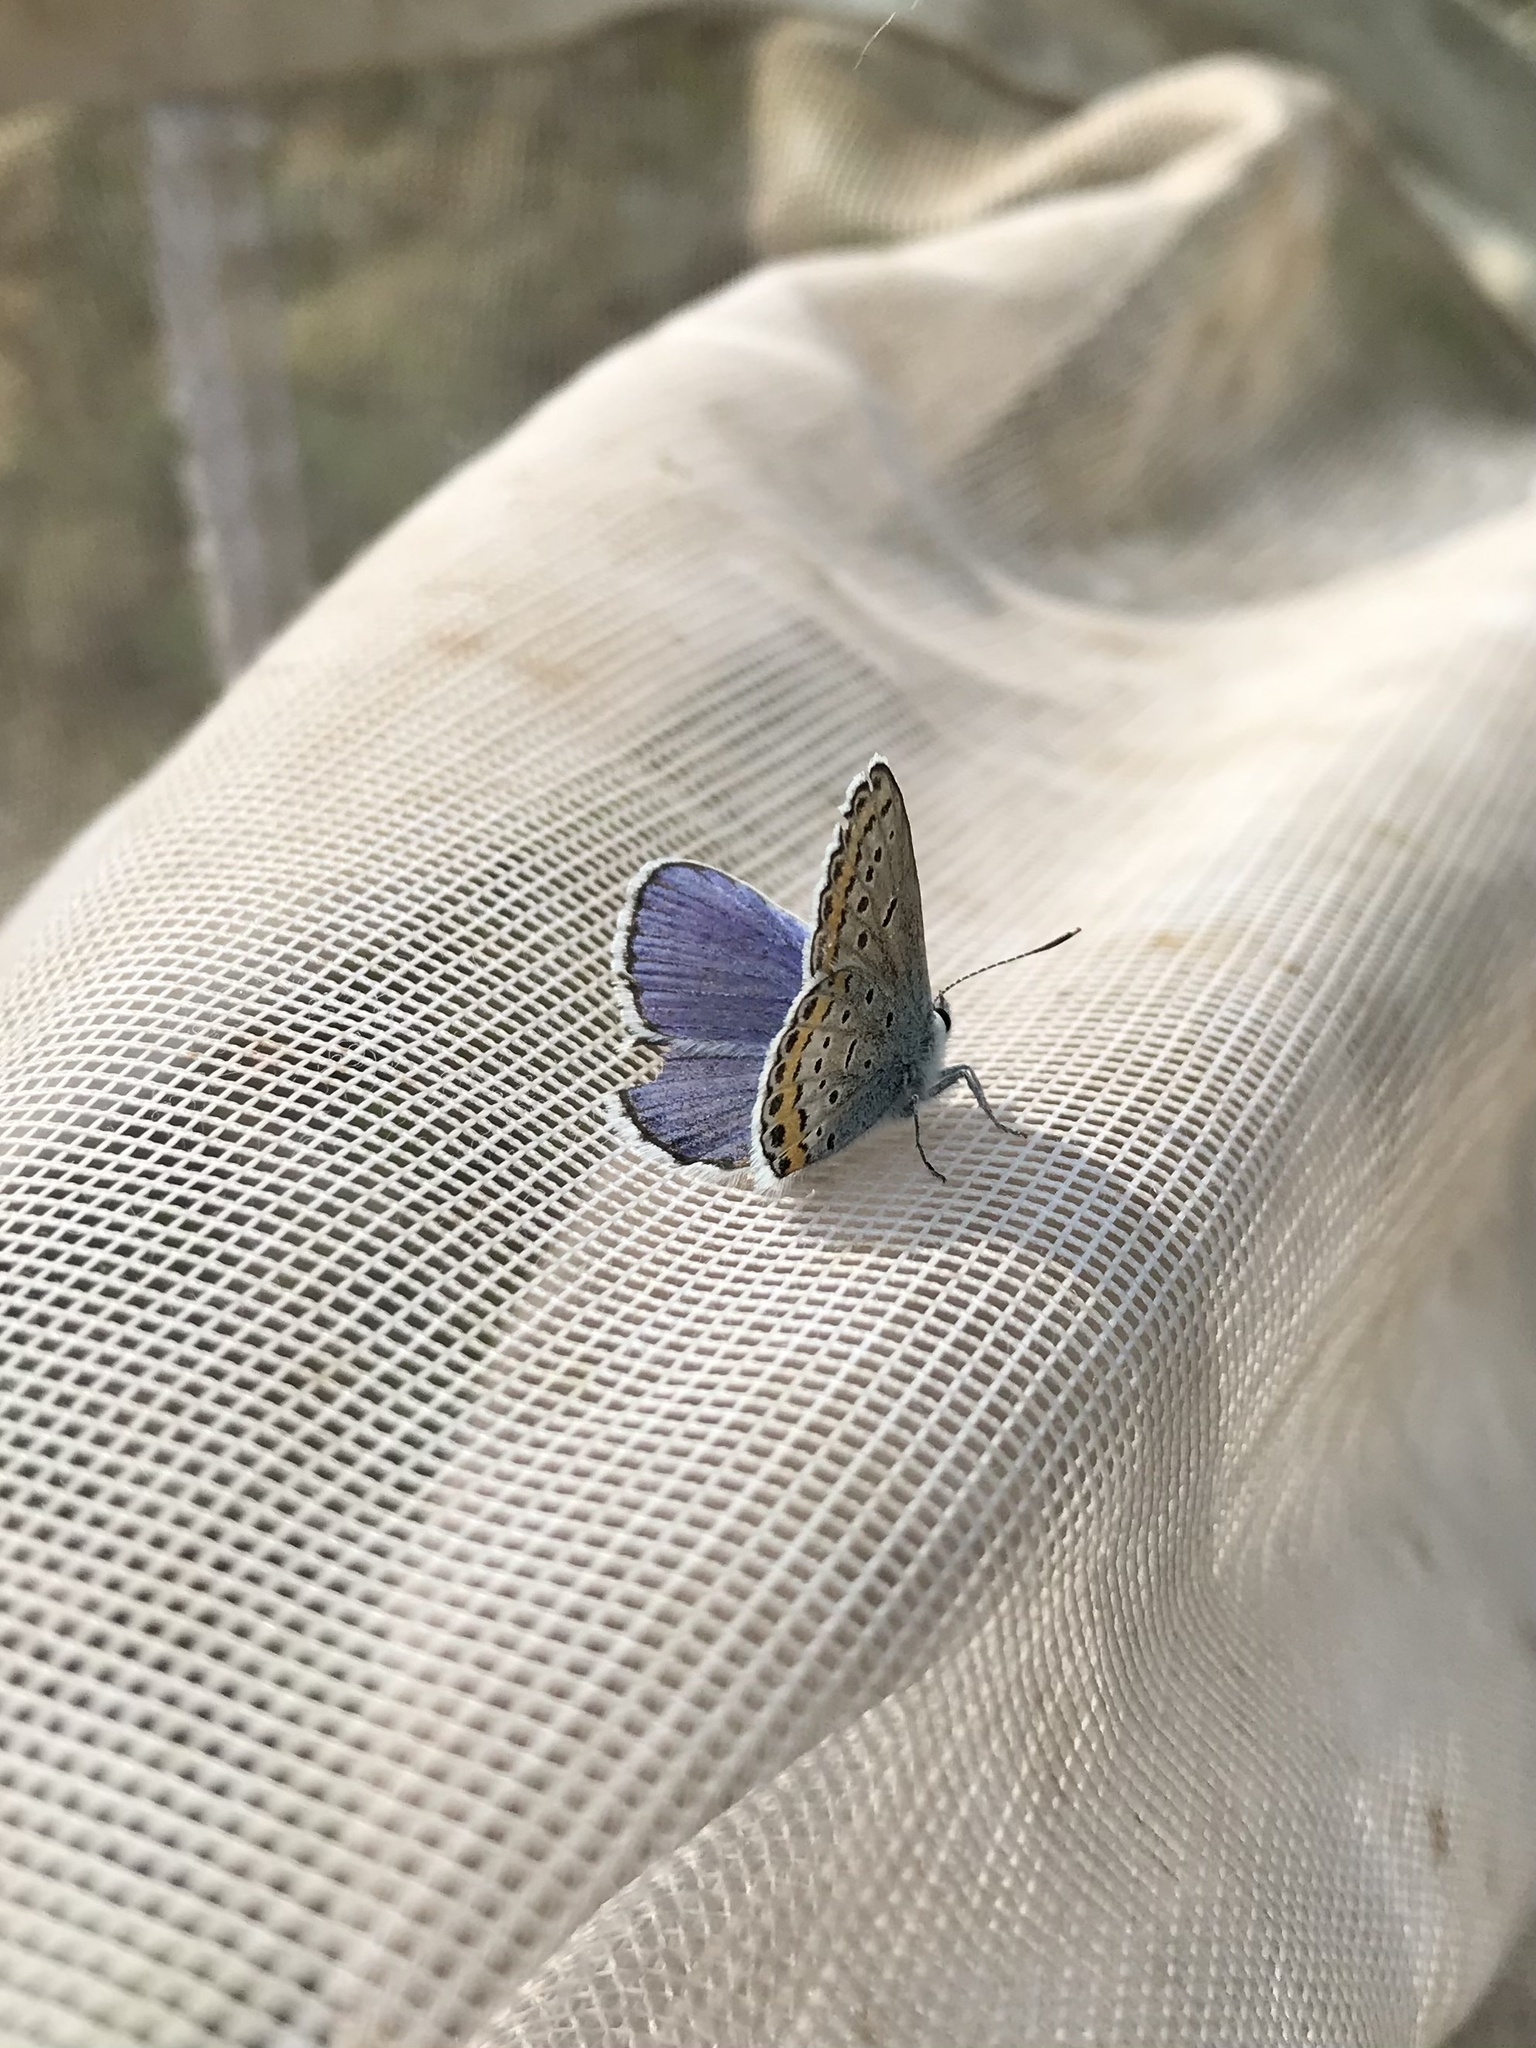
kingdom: Animalia
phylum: Arthropoda
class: Insecta
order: Lepidoptera
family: Lycaenidae
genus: Lycaeides
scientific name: Lycaeides melissa
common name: Melissa blue
